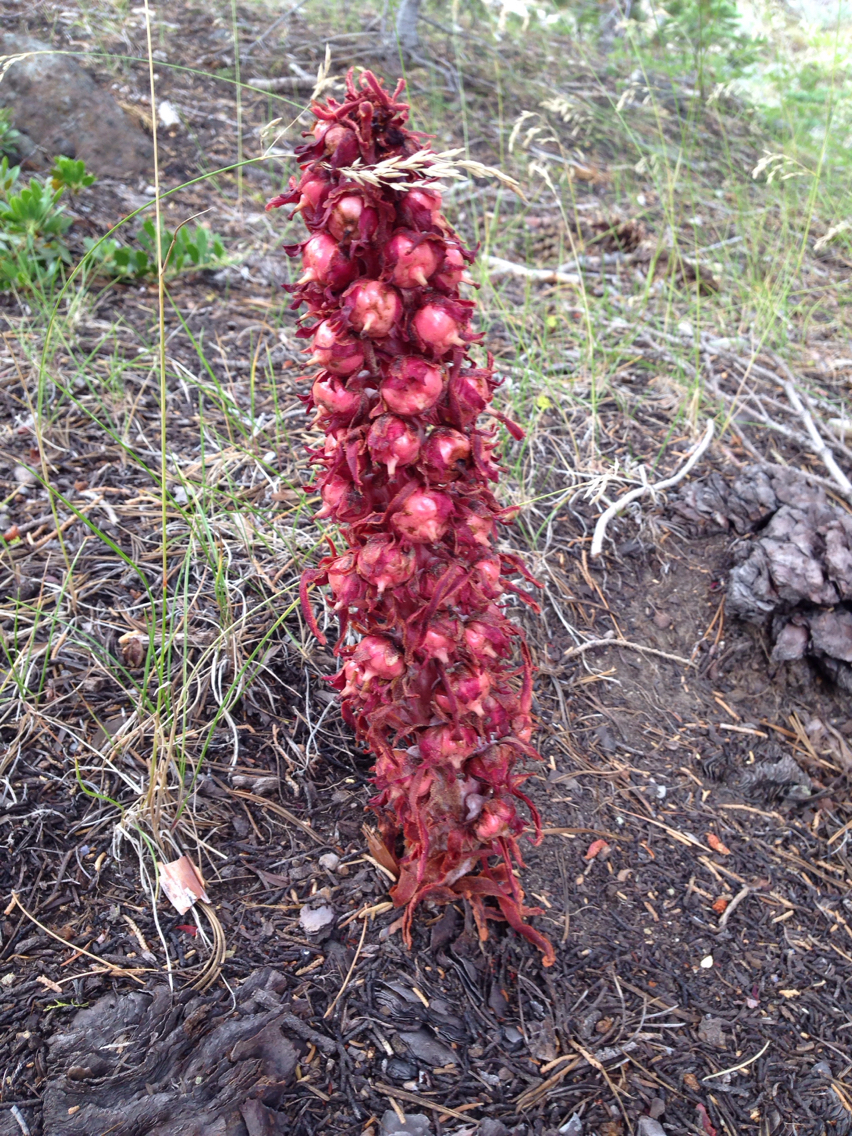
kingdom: Plantae
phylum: Tracheophyta
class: Magnoliopsida
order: Ericales
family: Ericaceae
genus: Sarcodes
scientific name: Sarcodes sanguinea
